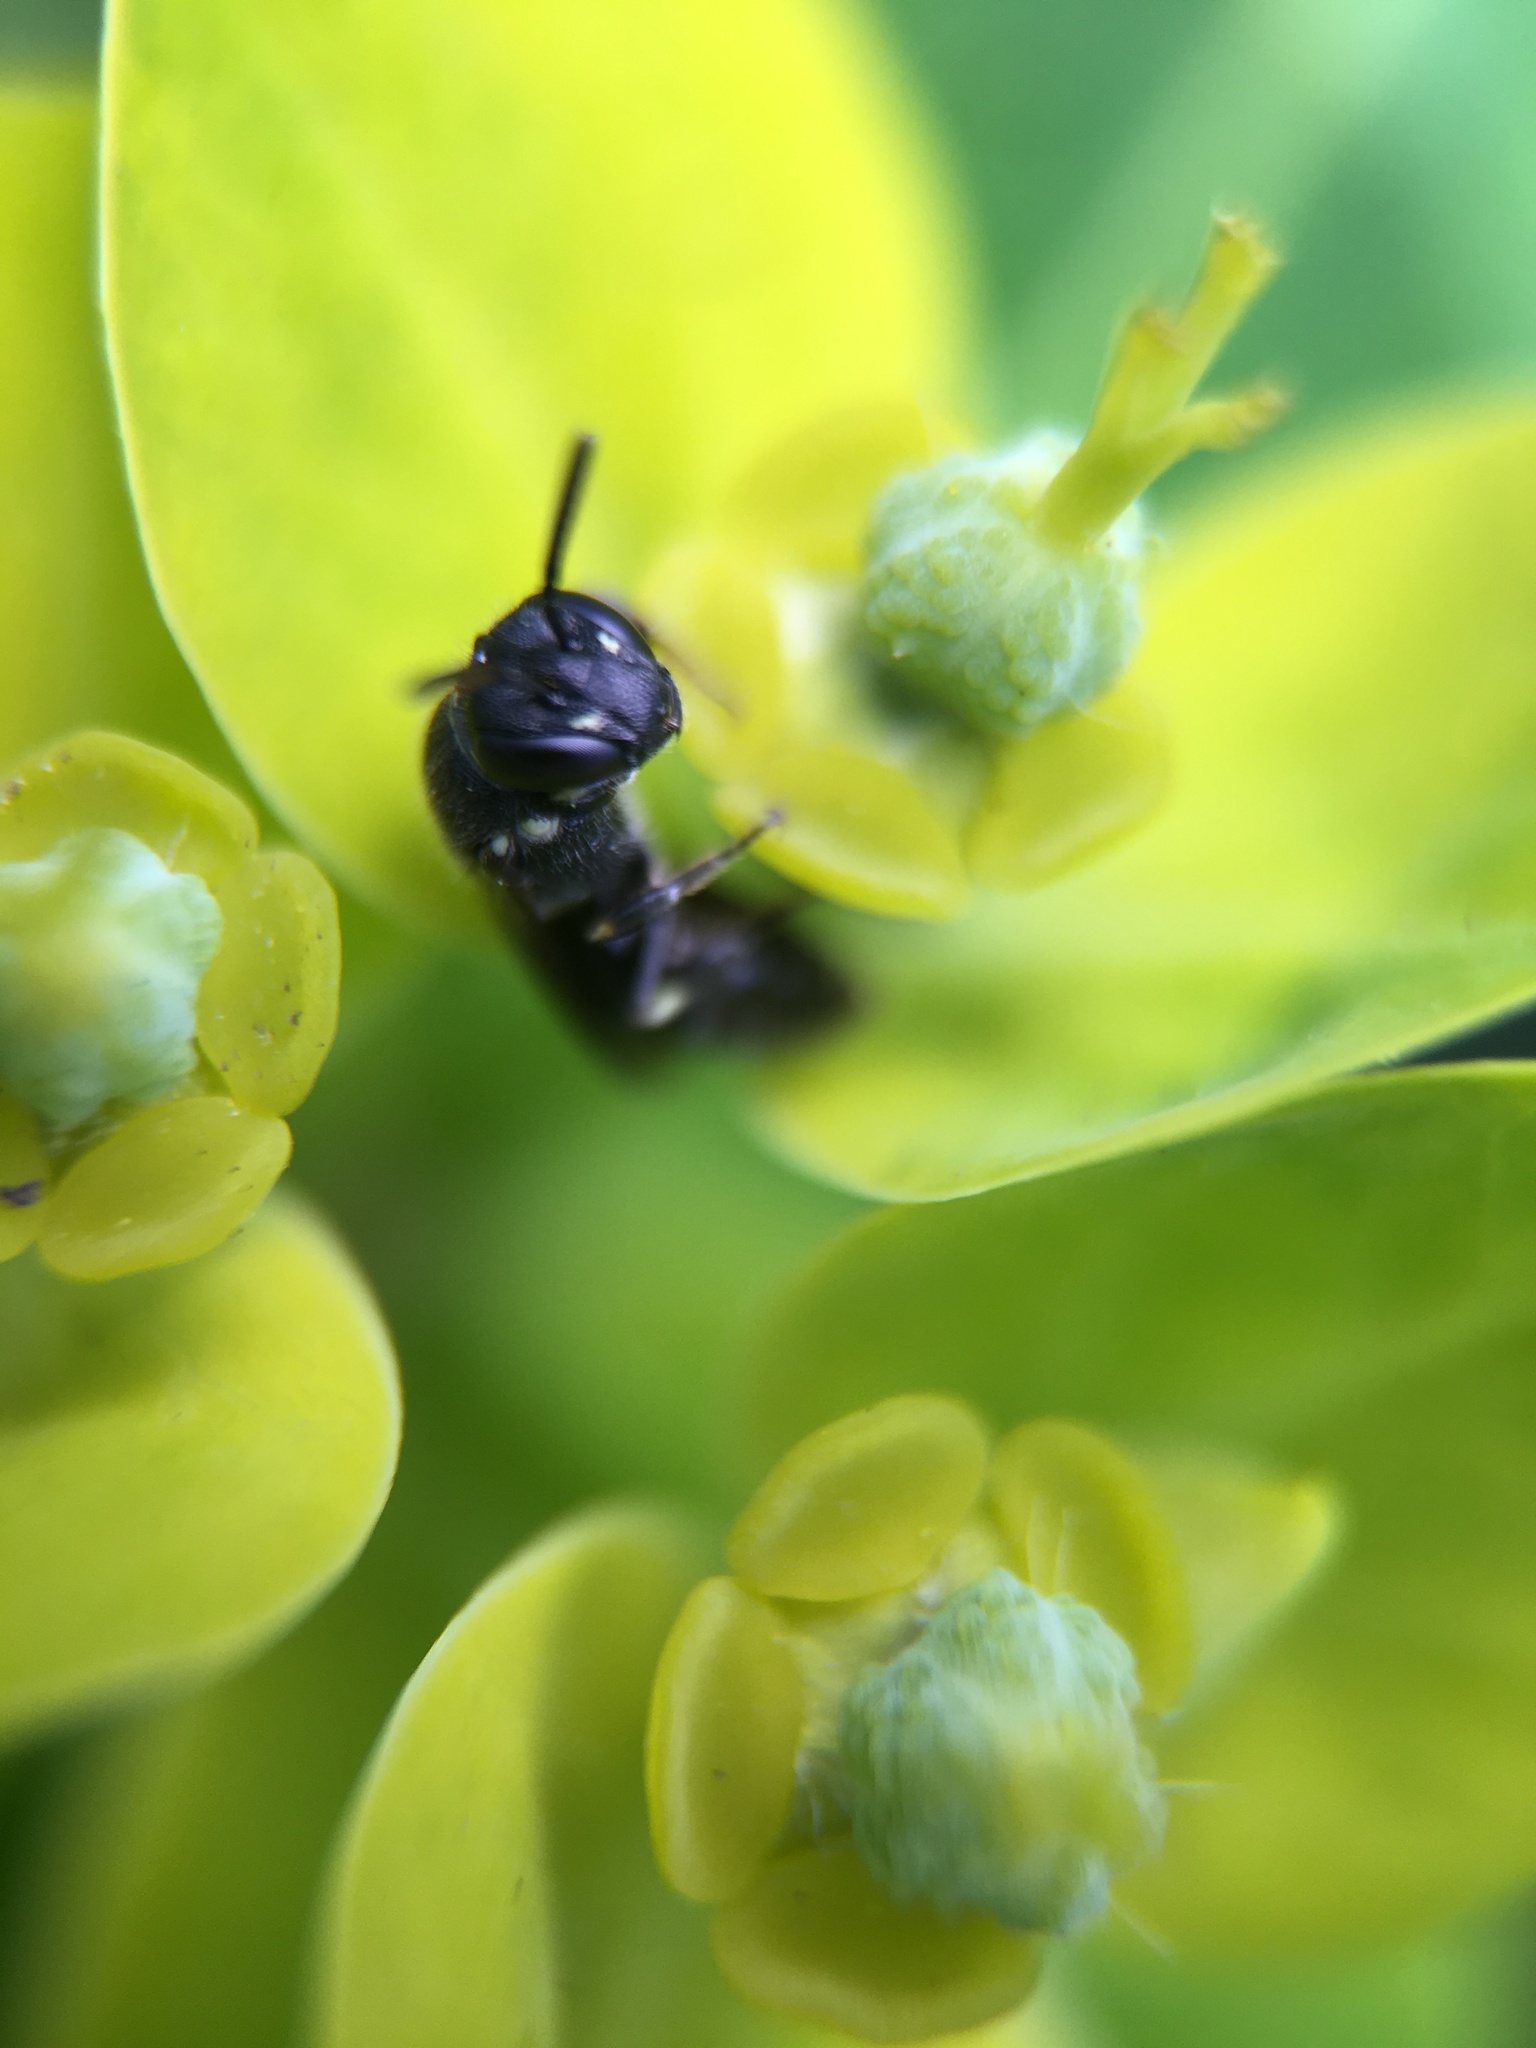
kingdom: Animalia
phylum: Arthropoda
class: Insecta
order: Hymenoptera
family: Colletidae
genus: Hylaeus
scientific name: Hylaeus
